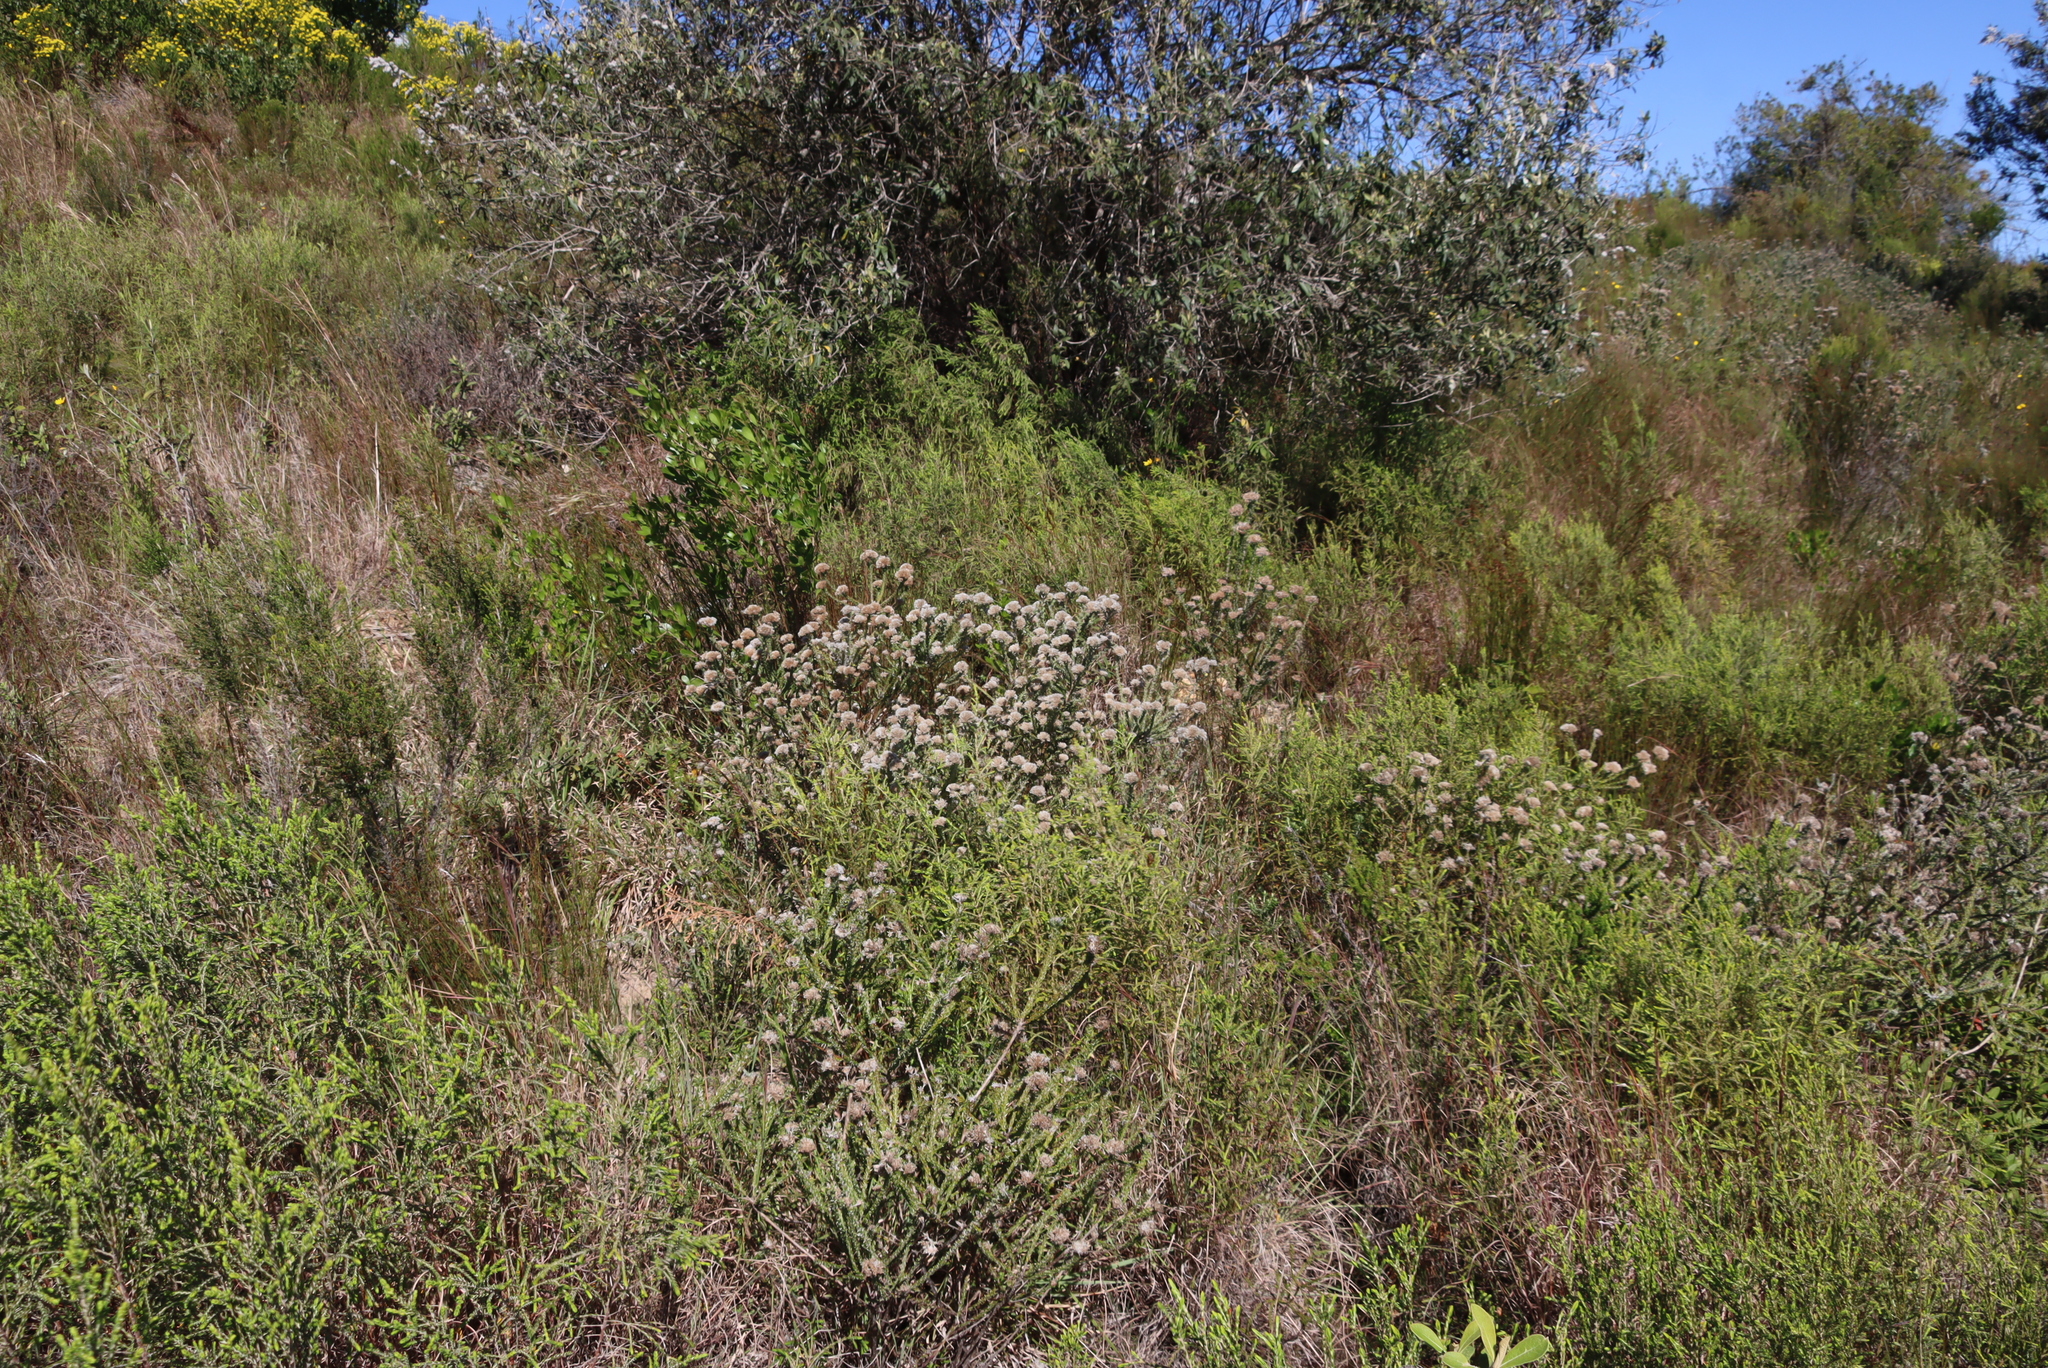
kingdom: Plantae
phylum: Tracheophyta
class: Magnoliopsida
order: Asterales
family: Asteraceae
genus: Metalasia
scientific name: Metalasia pungens
